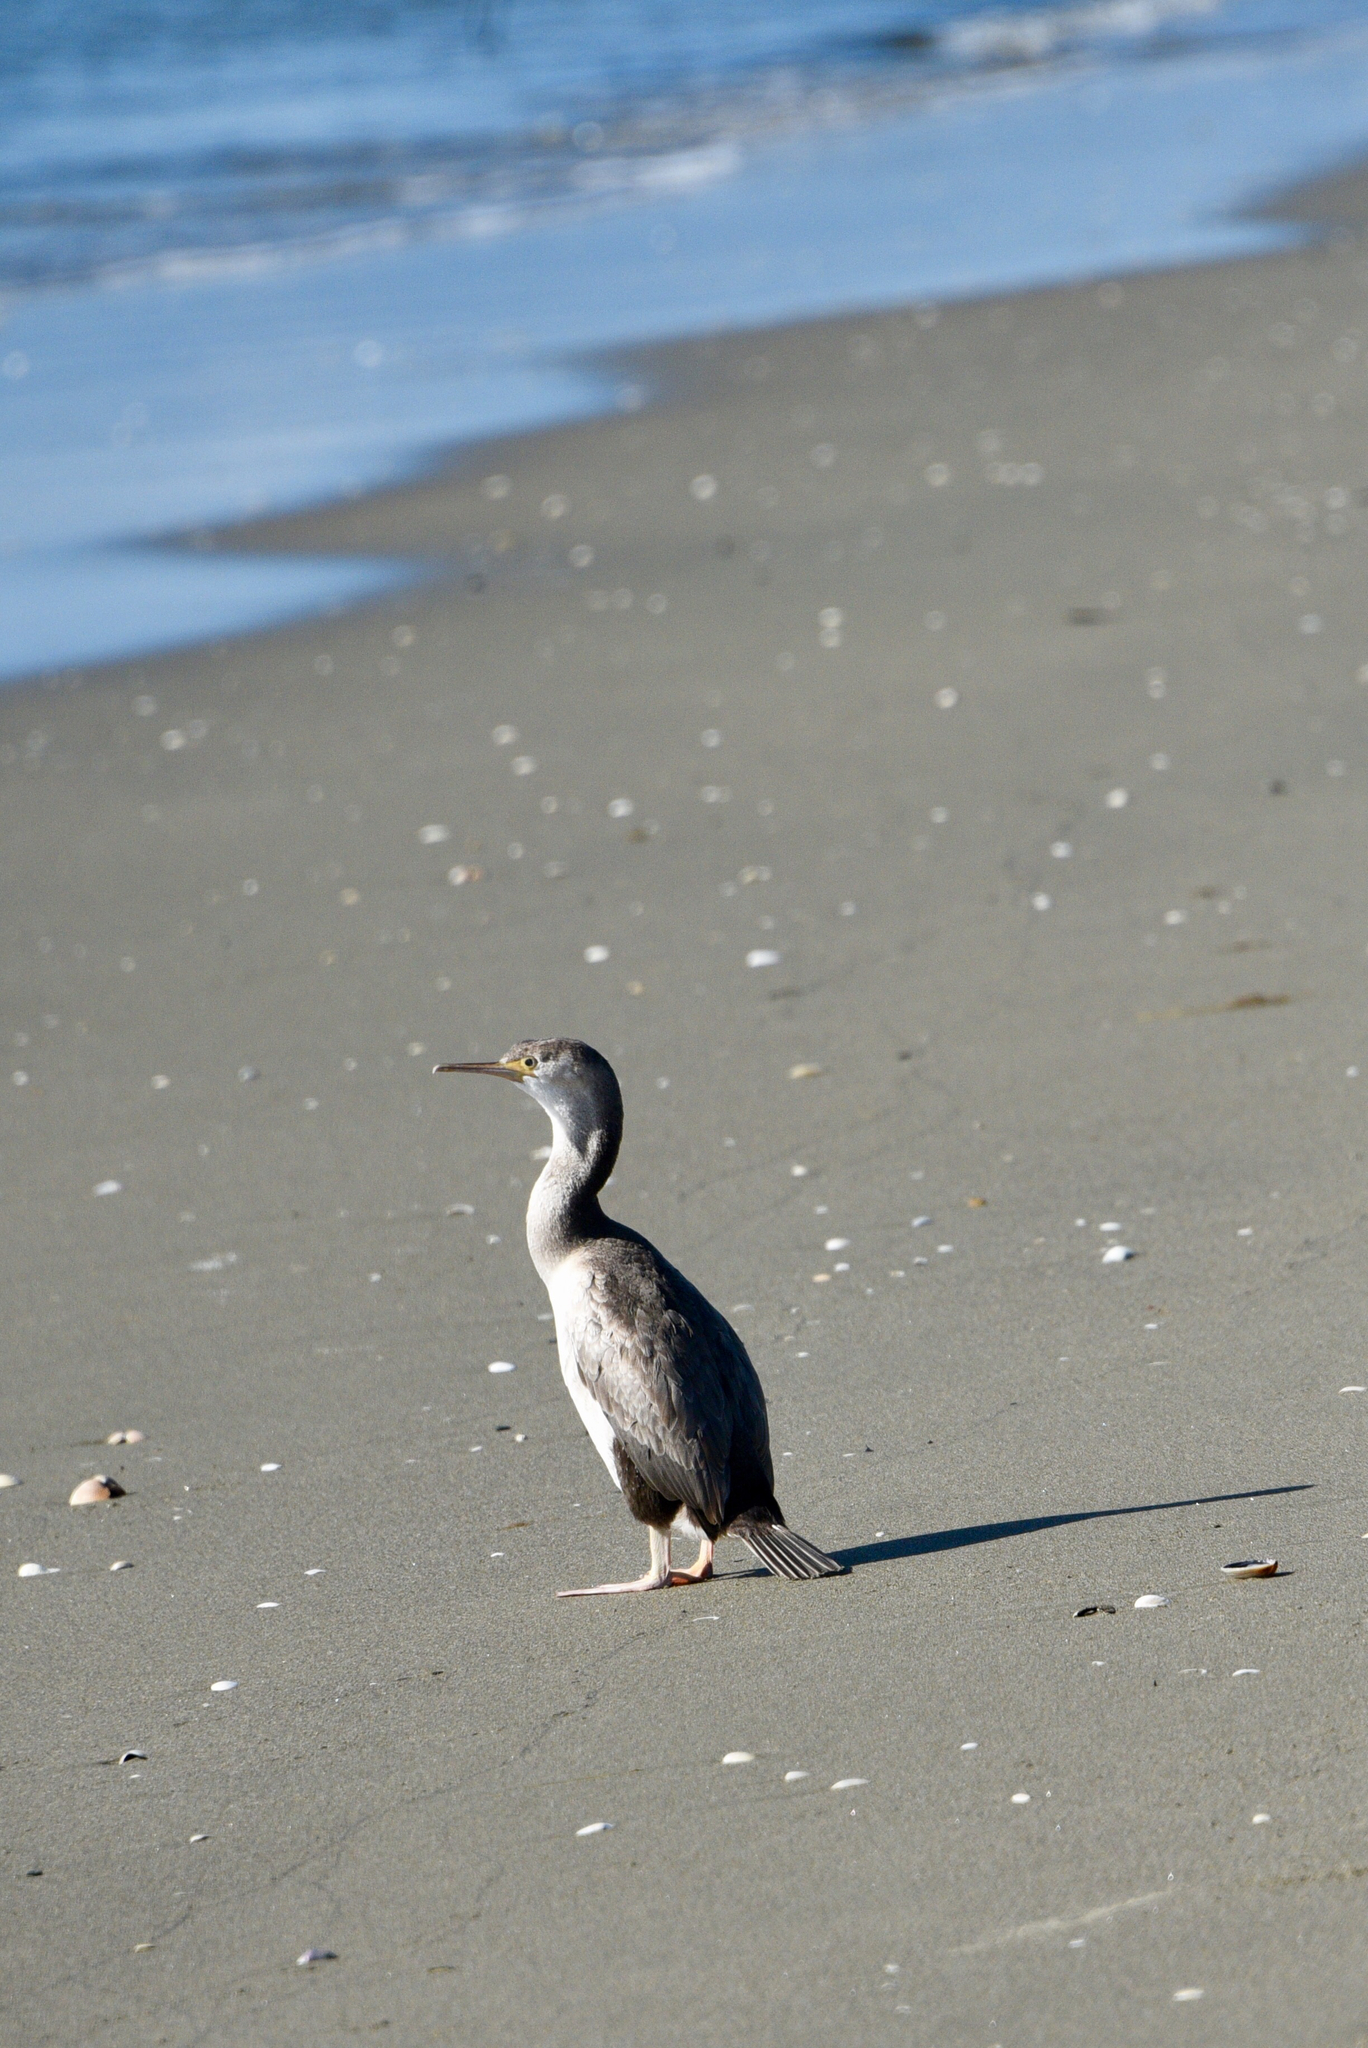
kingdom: Animalia
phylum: Chordata
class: Aves
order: Suliformes
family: Phalacrocoracidae
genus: Phalacrocorax
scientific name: Phalacrocorax punctatus
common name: Spotted shag
